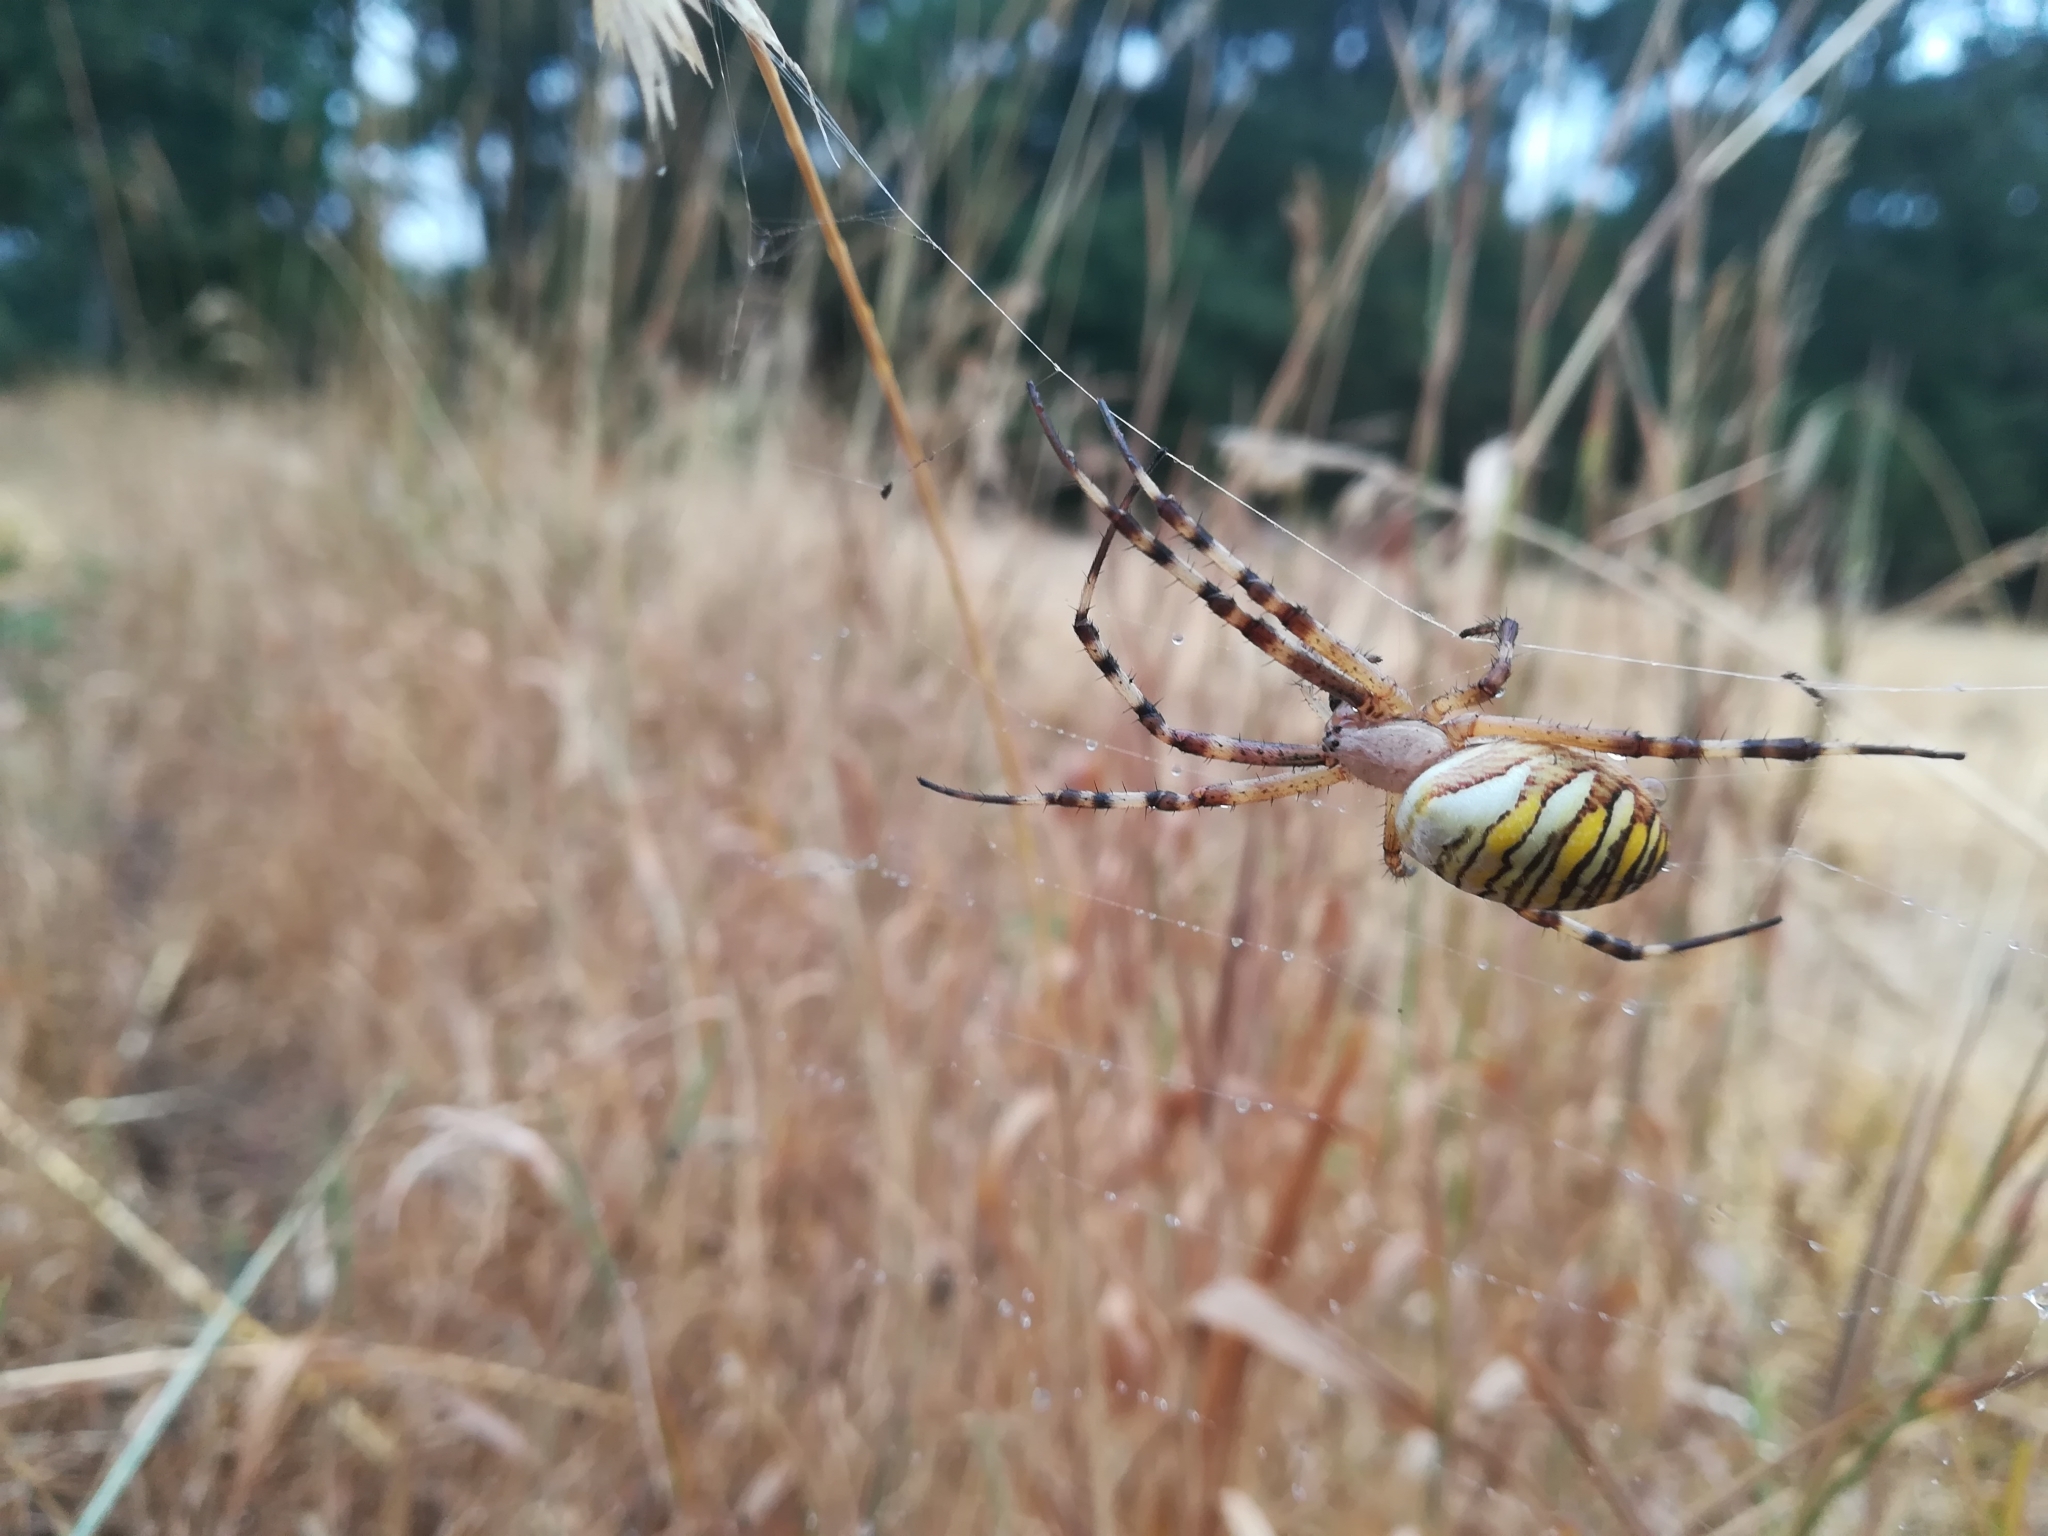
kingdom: Animalia
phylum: Arthropoda
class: Arachnida
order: Araneae
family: Araneidae
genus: Argiope
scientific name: Argiope bruennichi
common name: Wasp spider
